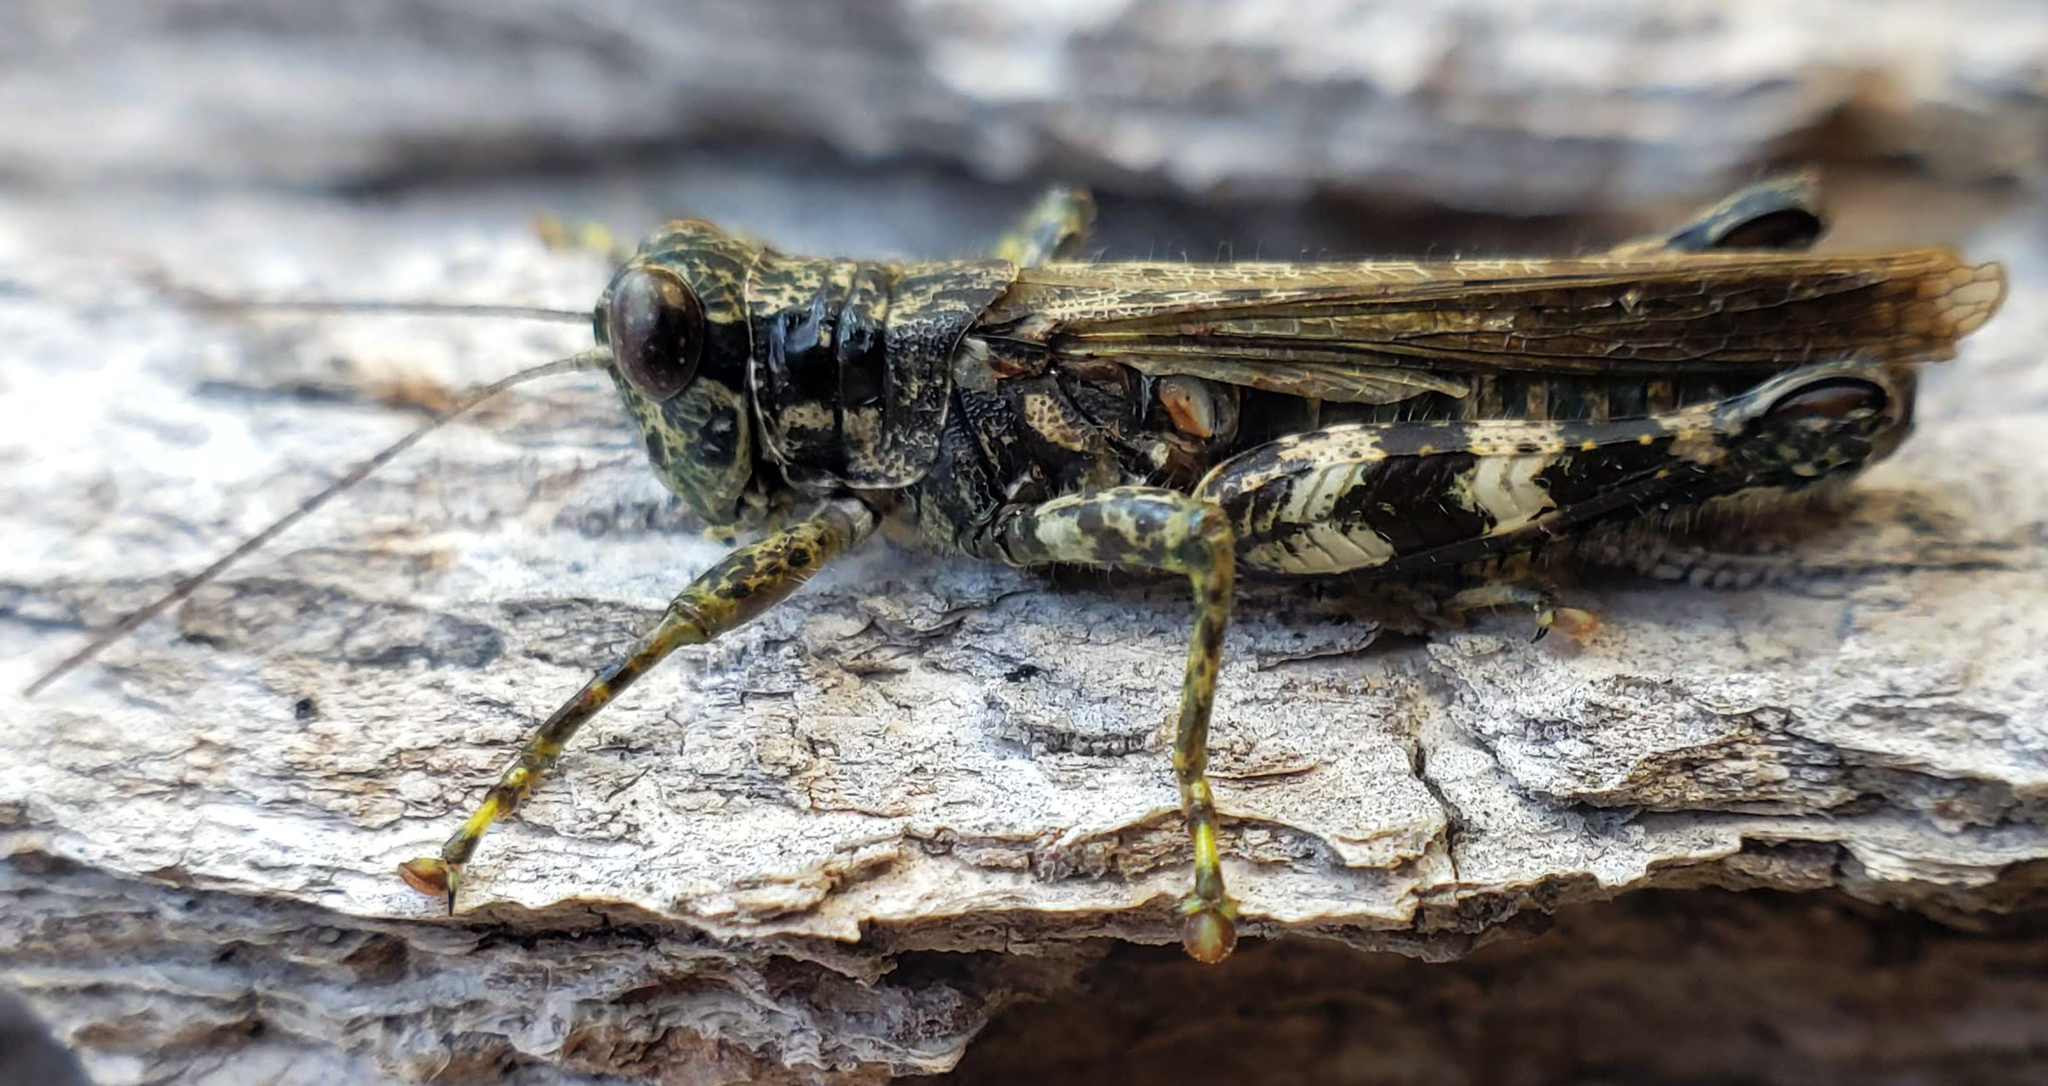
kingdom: Animalia
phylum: Arthropoda
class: Insecta
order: Orthoptera
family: Acrididae
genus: Melanoplus
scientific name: Melanoplus punctulatus
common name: Pine-tree spur-throat grasshopper
